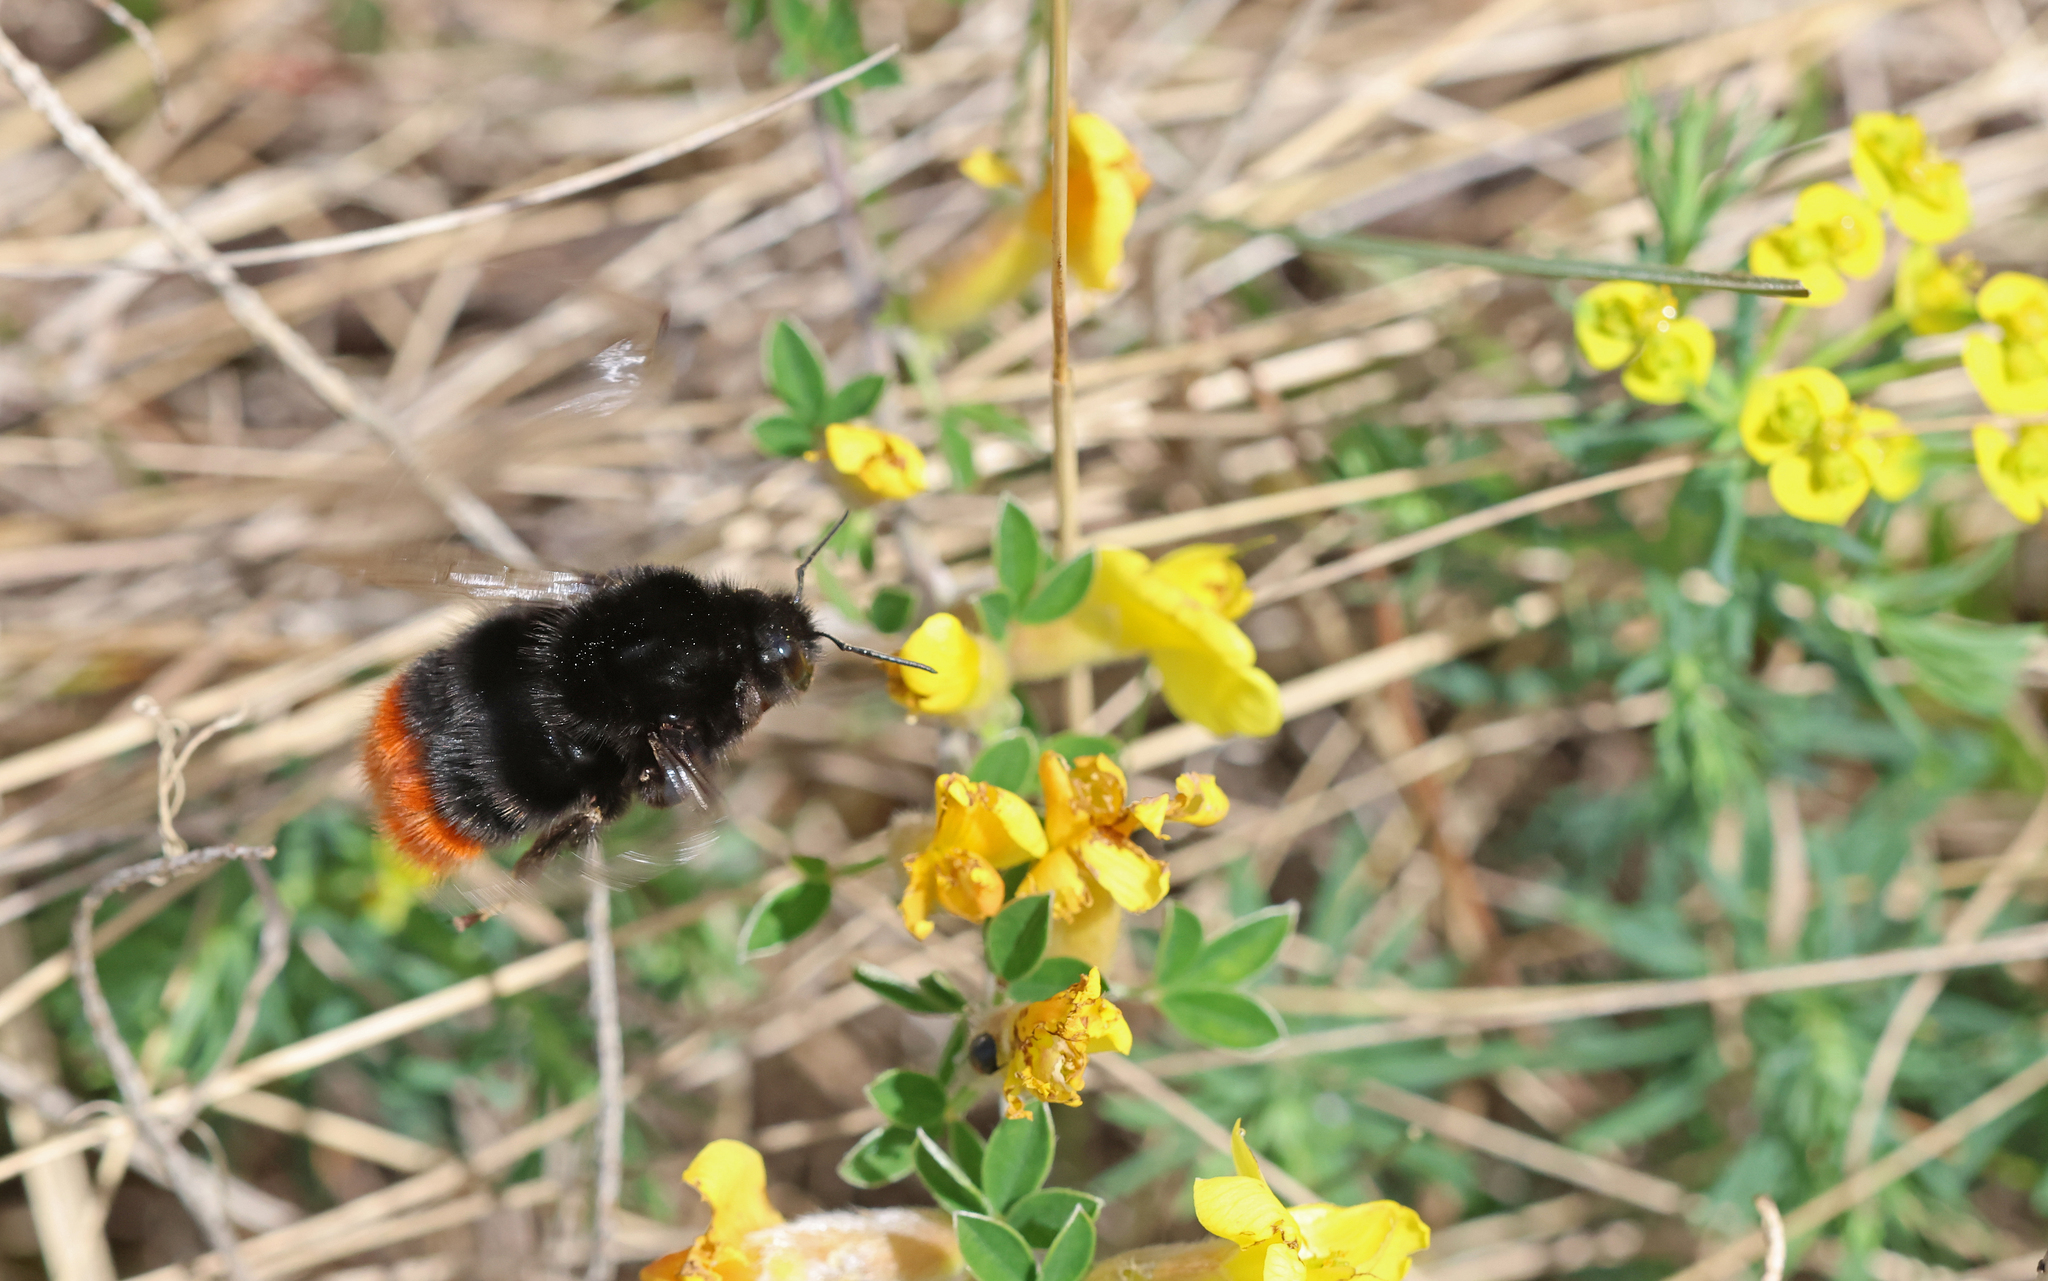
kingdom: Animalia
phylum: Arthropoda
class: Insecta
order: Hymenoptera
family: Apidae
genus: Bombus
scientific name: Bombus lapidarius
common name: Large red-tailed humble-bee
